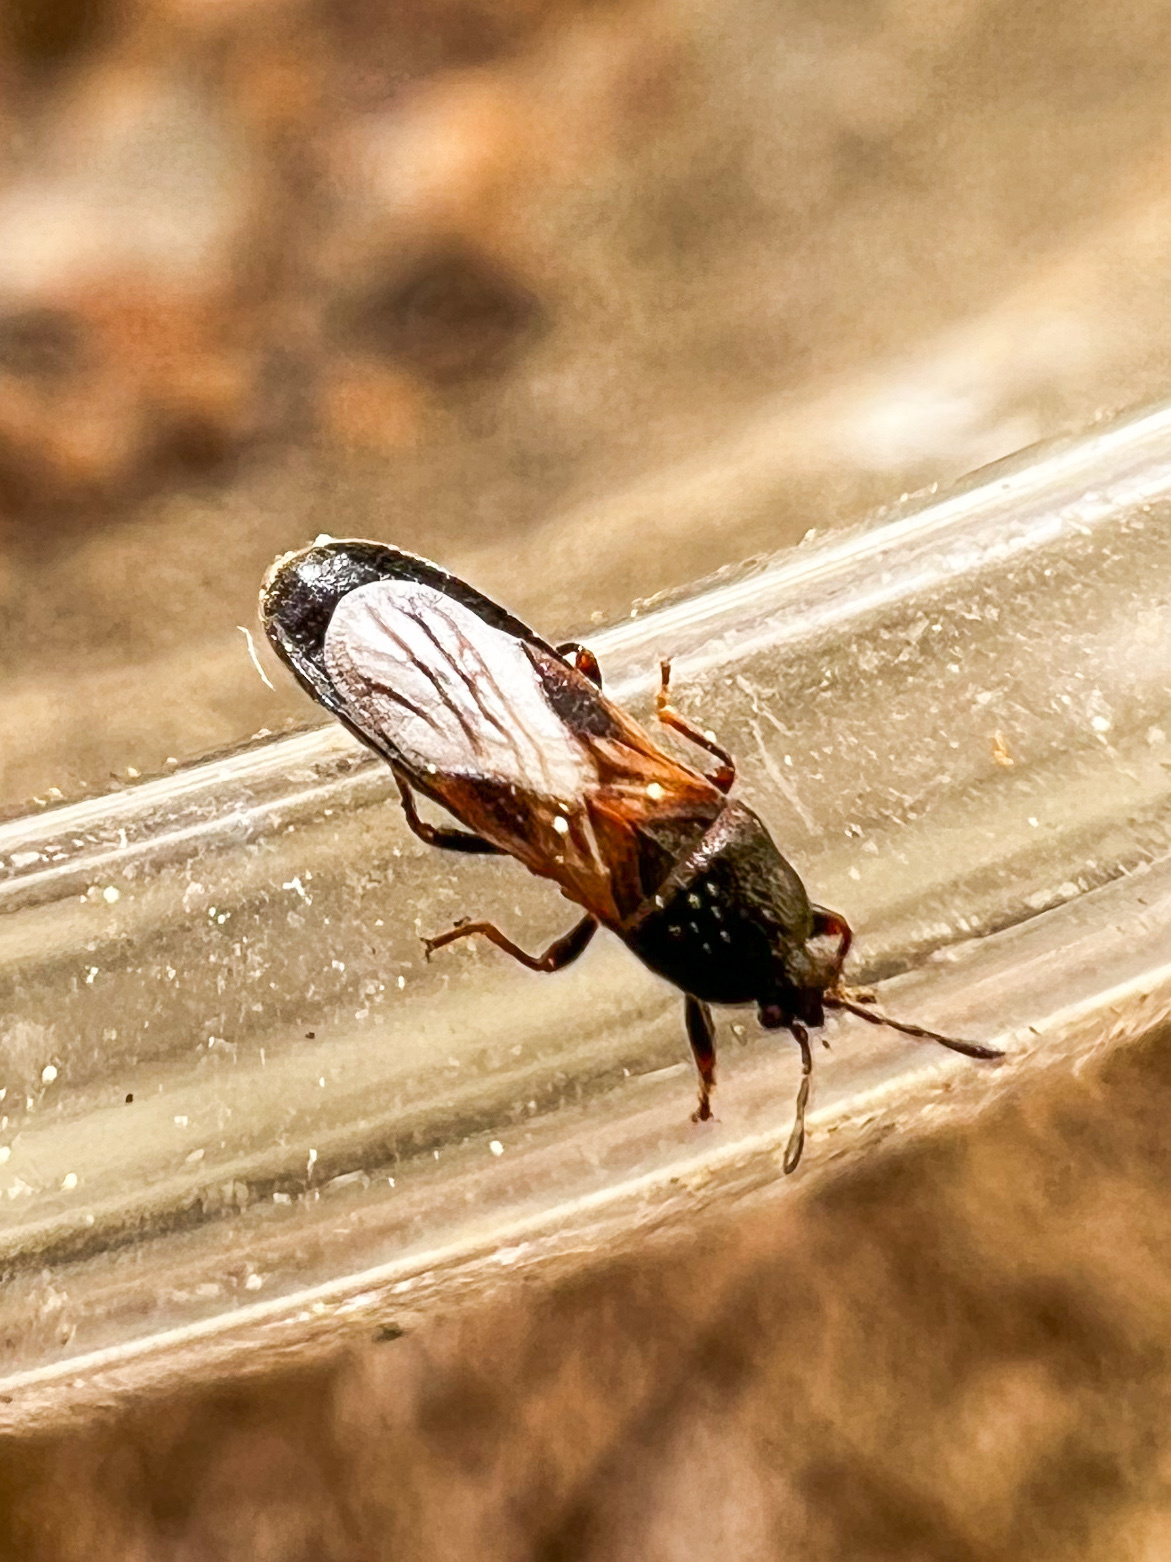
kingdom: Animalia
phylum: Arthropoda
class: Insecta
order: Hemiptera
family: Blissidae
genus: Dimorphopterus
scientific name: Dimorphopterus spinolae
